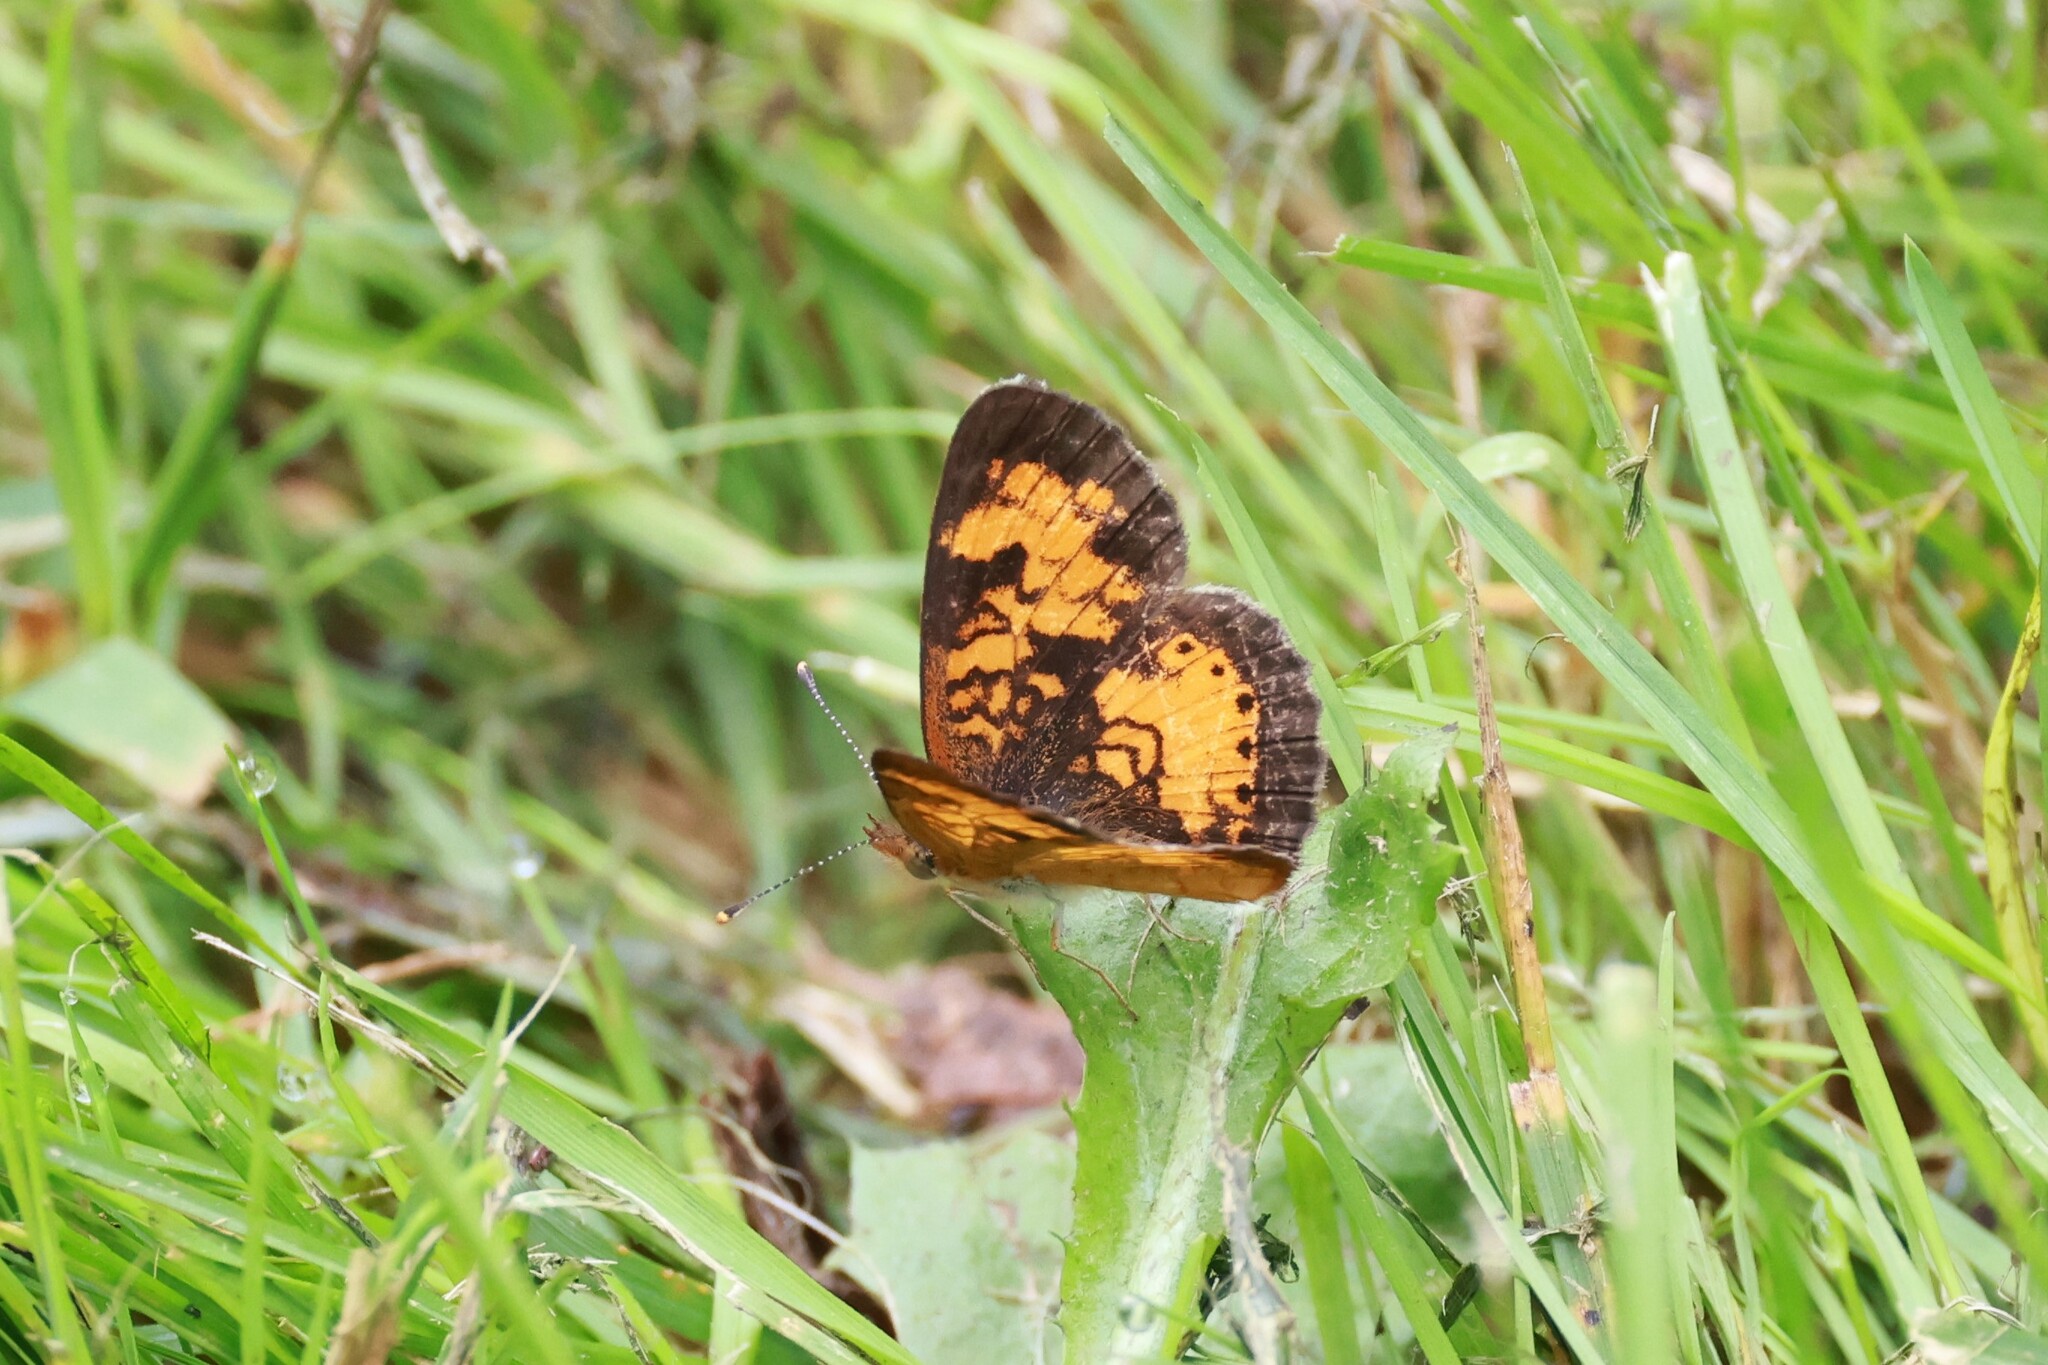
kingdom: Animalia
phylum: Arthropoda
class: Insecta
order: Lepidoptera
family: Nymphalidae
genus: Phyciodes
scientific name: Phyciodes tharos
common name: Pearl crescent
